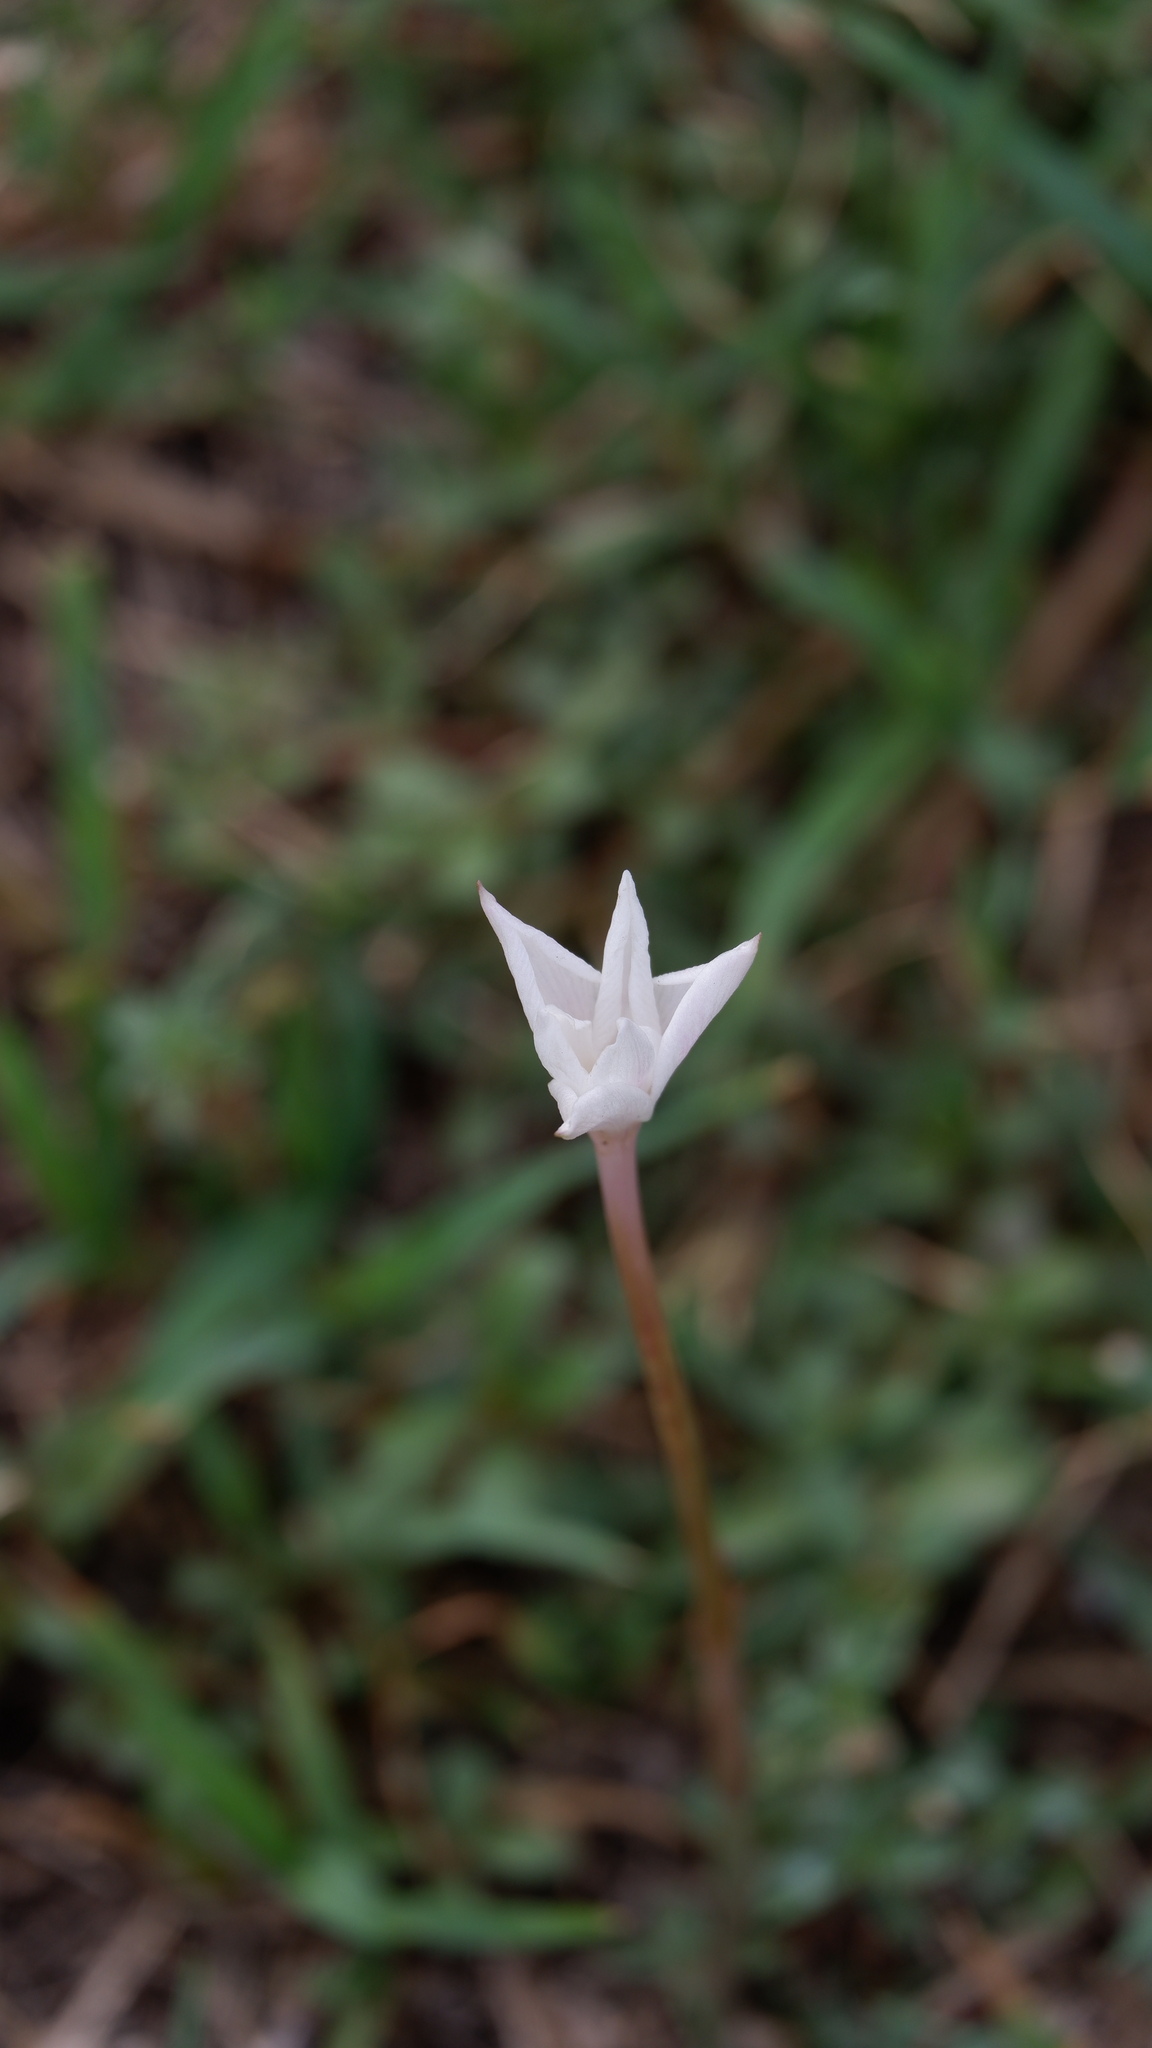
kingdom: Plantae
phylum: Tracheophyta
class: Liliopsida
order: Asparagales
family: Amaryllidaceae
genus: Zephyranthes
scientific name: Zephyranthes chlorosolen
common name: Evening rain-lily
